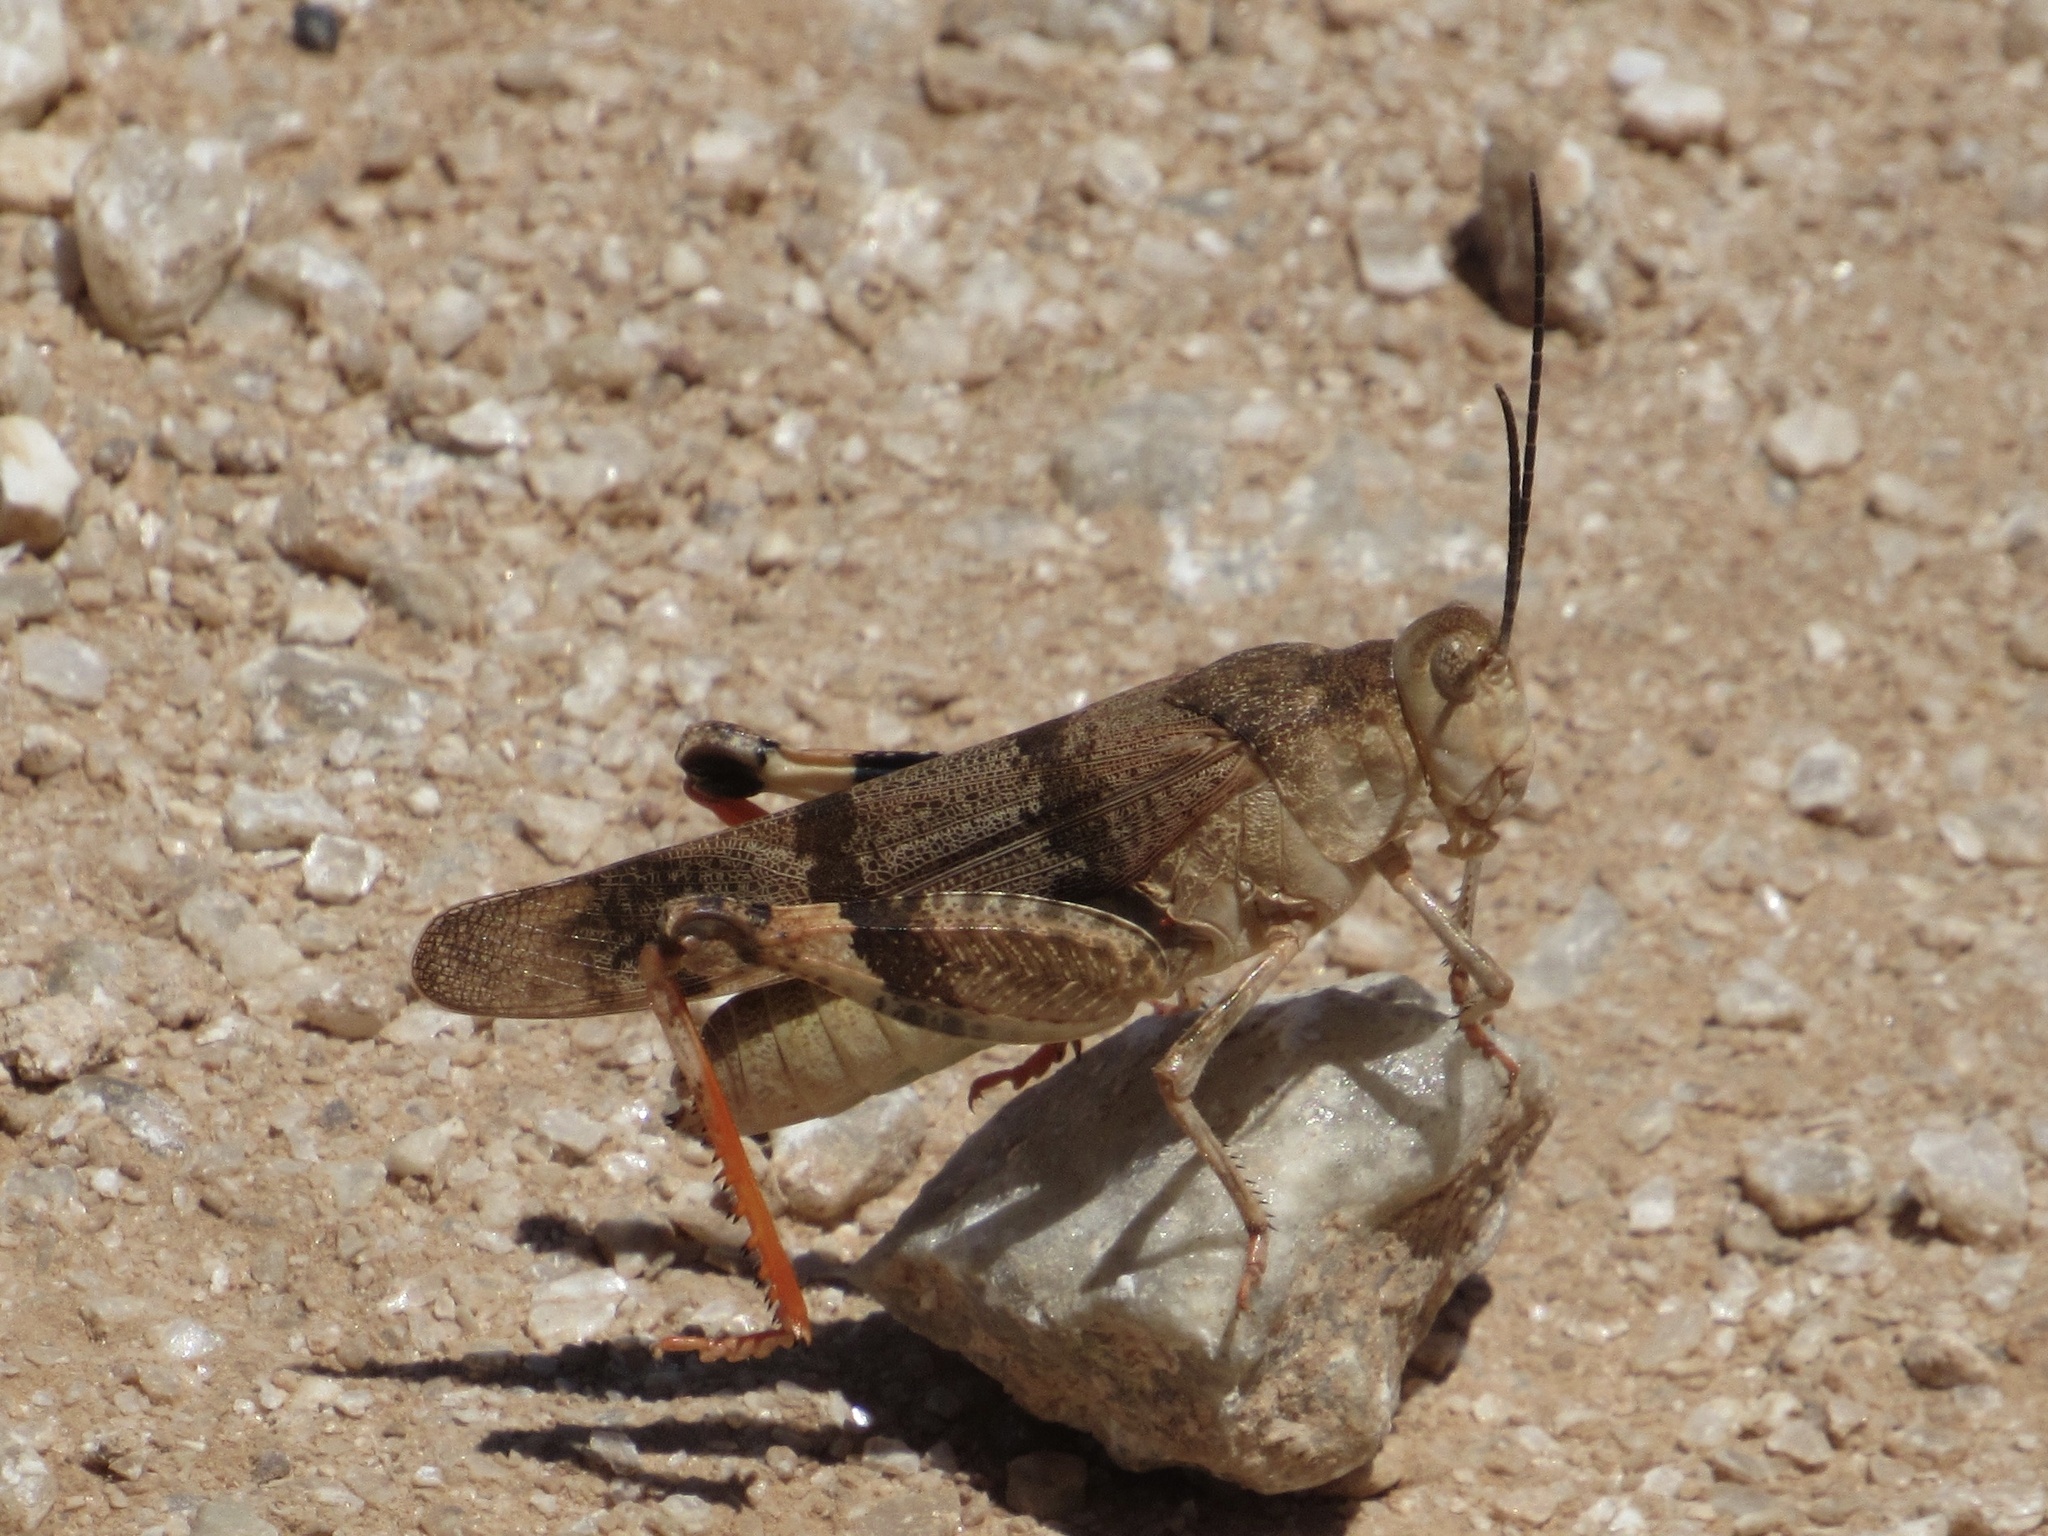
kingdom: Animalia
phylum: Arthropoda
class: Insecta
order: Orthoptera
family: Acrididae
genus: Hadrotettix
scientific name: Hadrotettix trifasciatus
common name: Threebanded grasshopper
